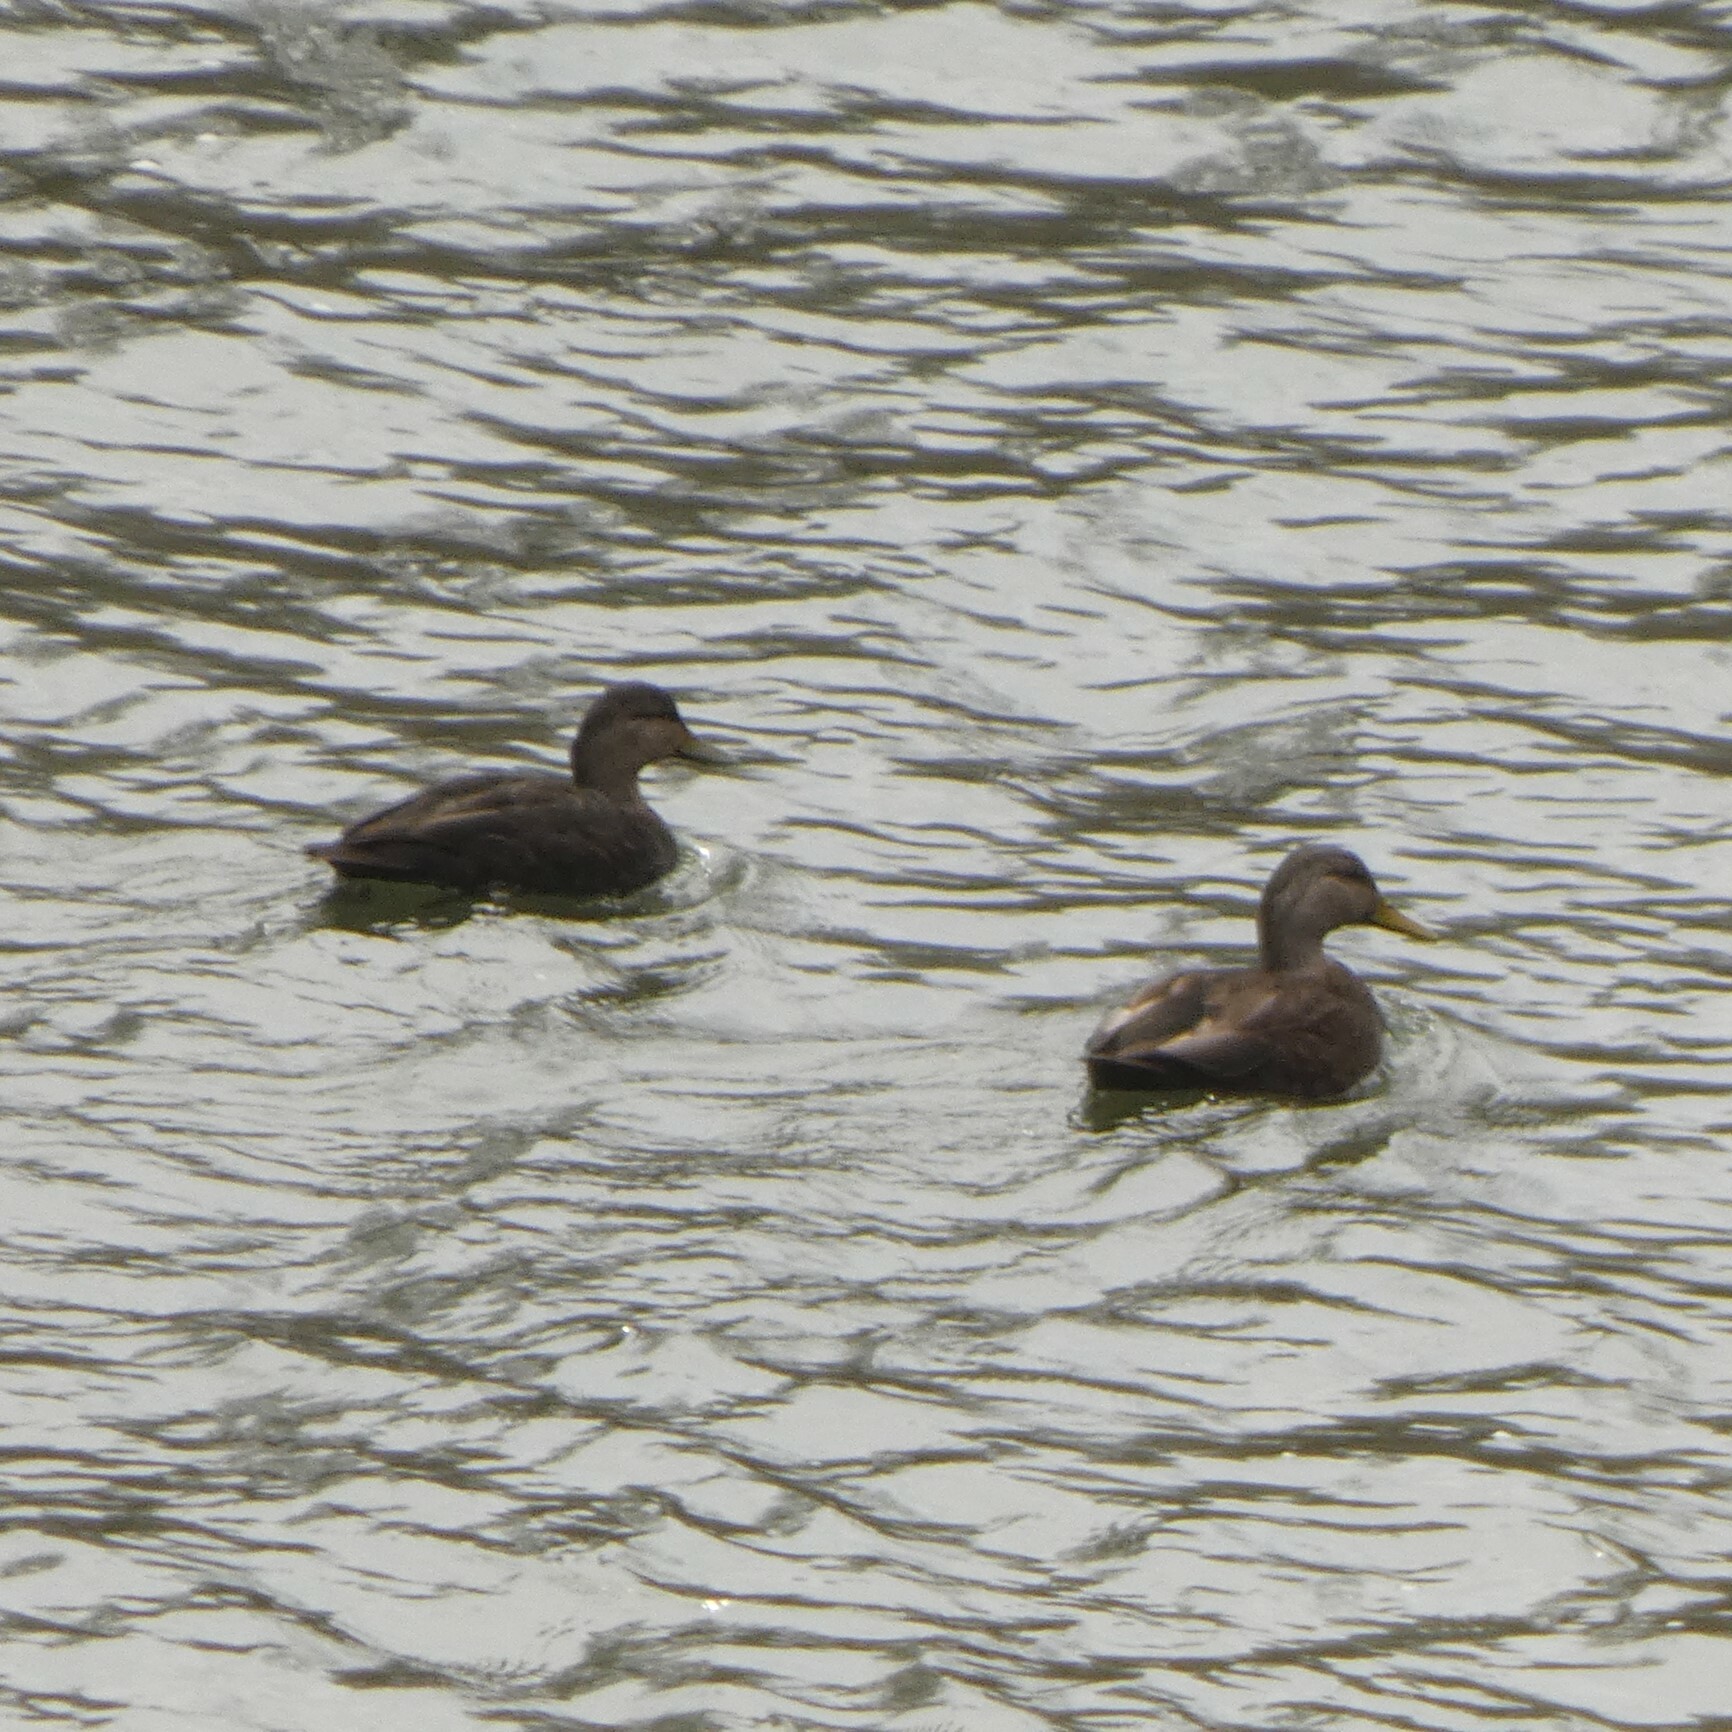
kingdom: Animalia
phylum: Chordata
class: Aves
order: Anseriformes
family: Anatidae
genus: Anas
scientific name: Anas rubripes
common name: American black duck
